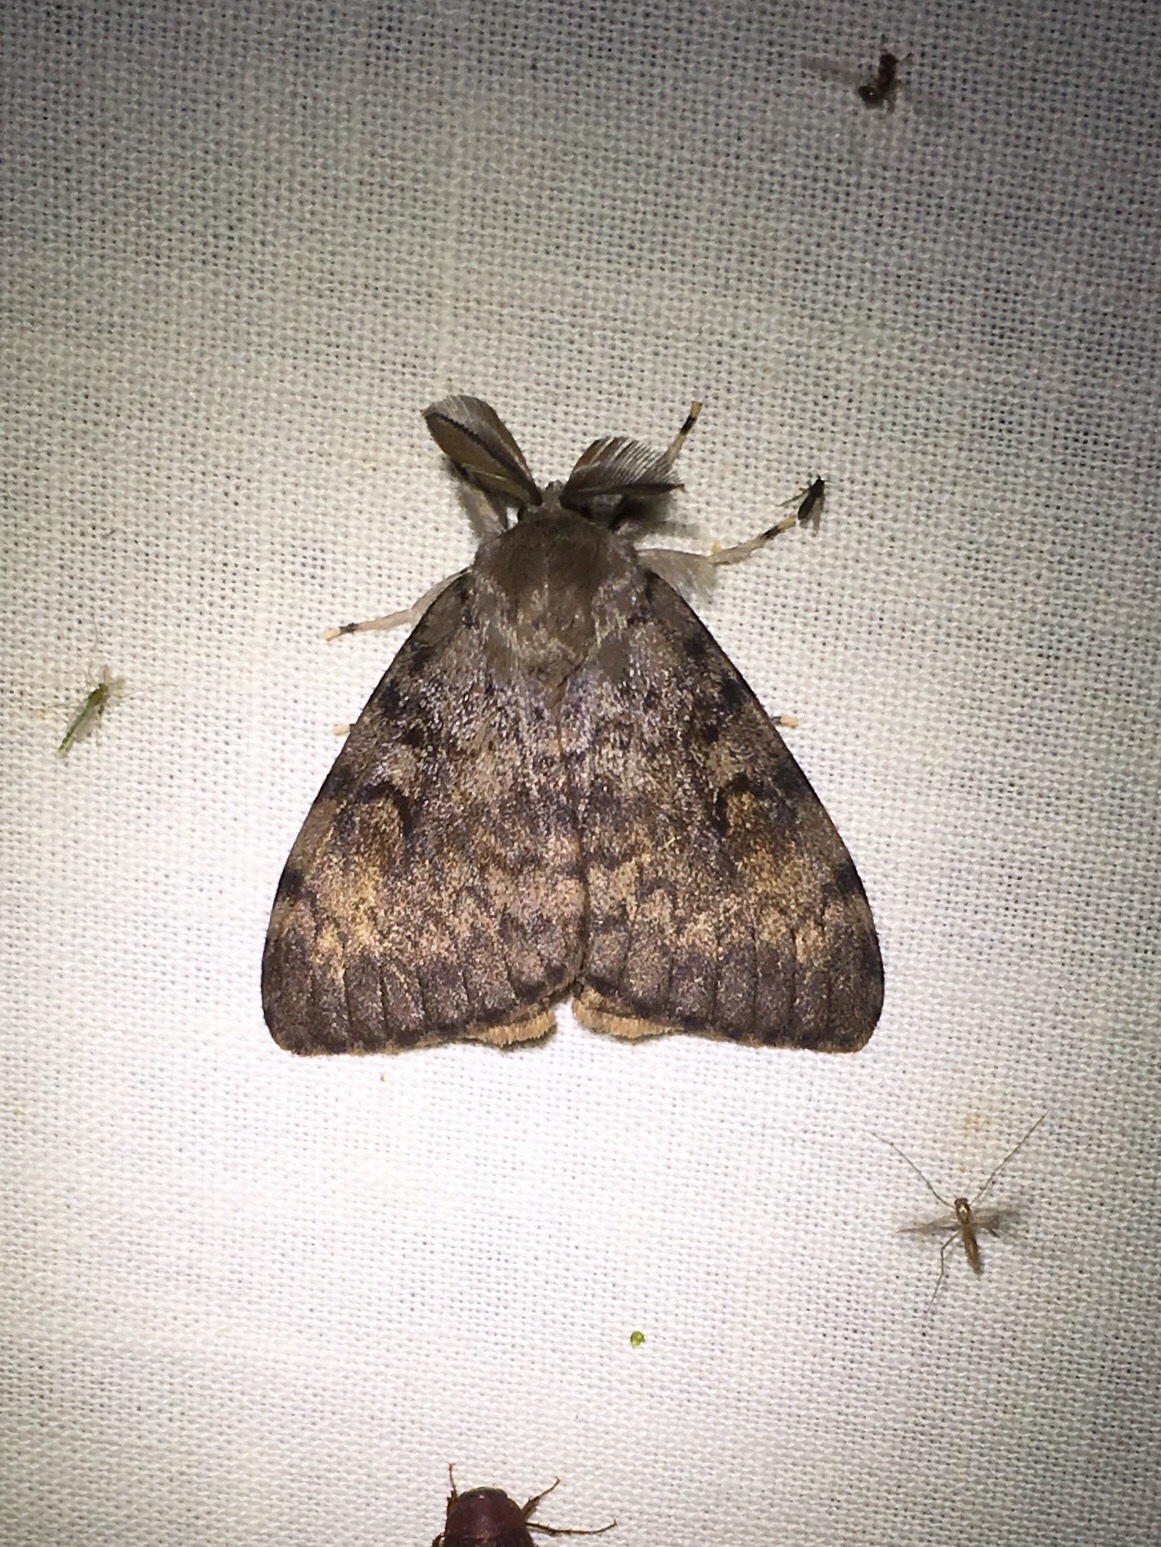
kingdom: Animalia
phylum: Arthropoda
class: Insecta
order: Lepidoptera
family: Erebidae
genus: Lymantria
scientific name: Lymantria dispar
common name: Gypsy moth
